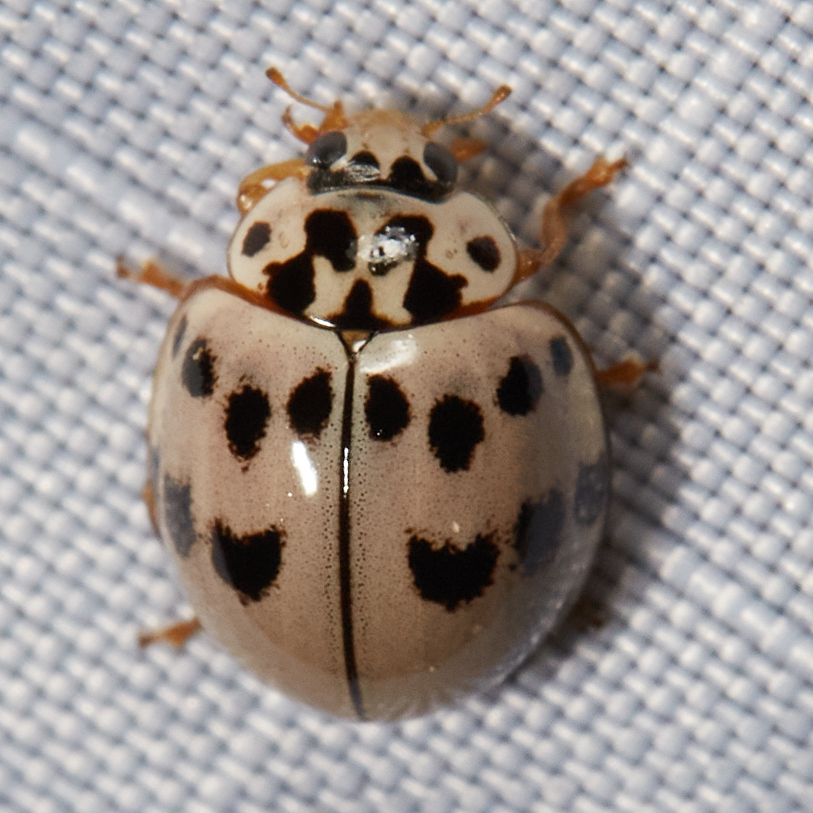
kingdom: Animalia
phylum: Arthropoda
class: Insecta
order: Coleoptera
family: Coccinellidae
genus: Olla
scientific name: Olla v-nigrum
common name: Ashy gray lady beetle
